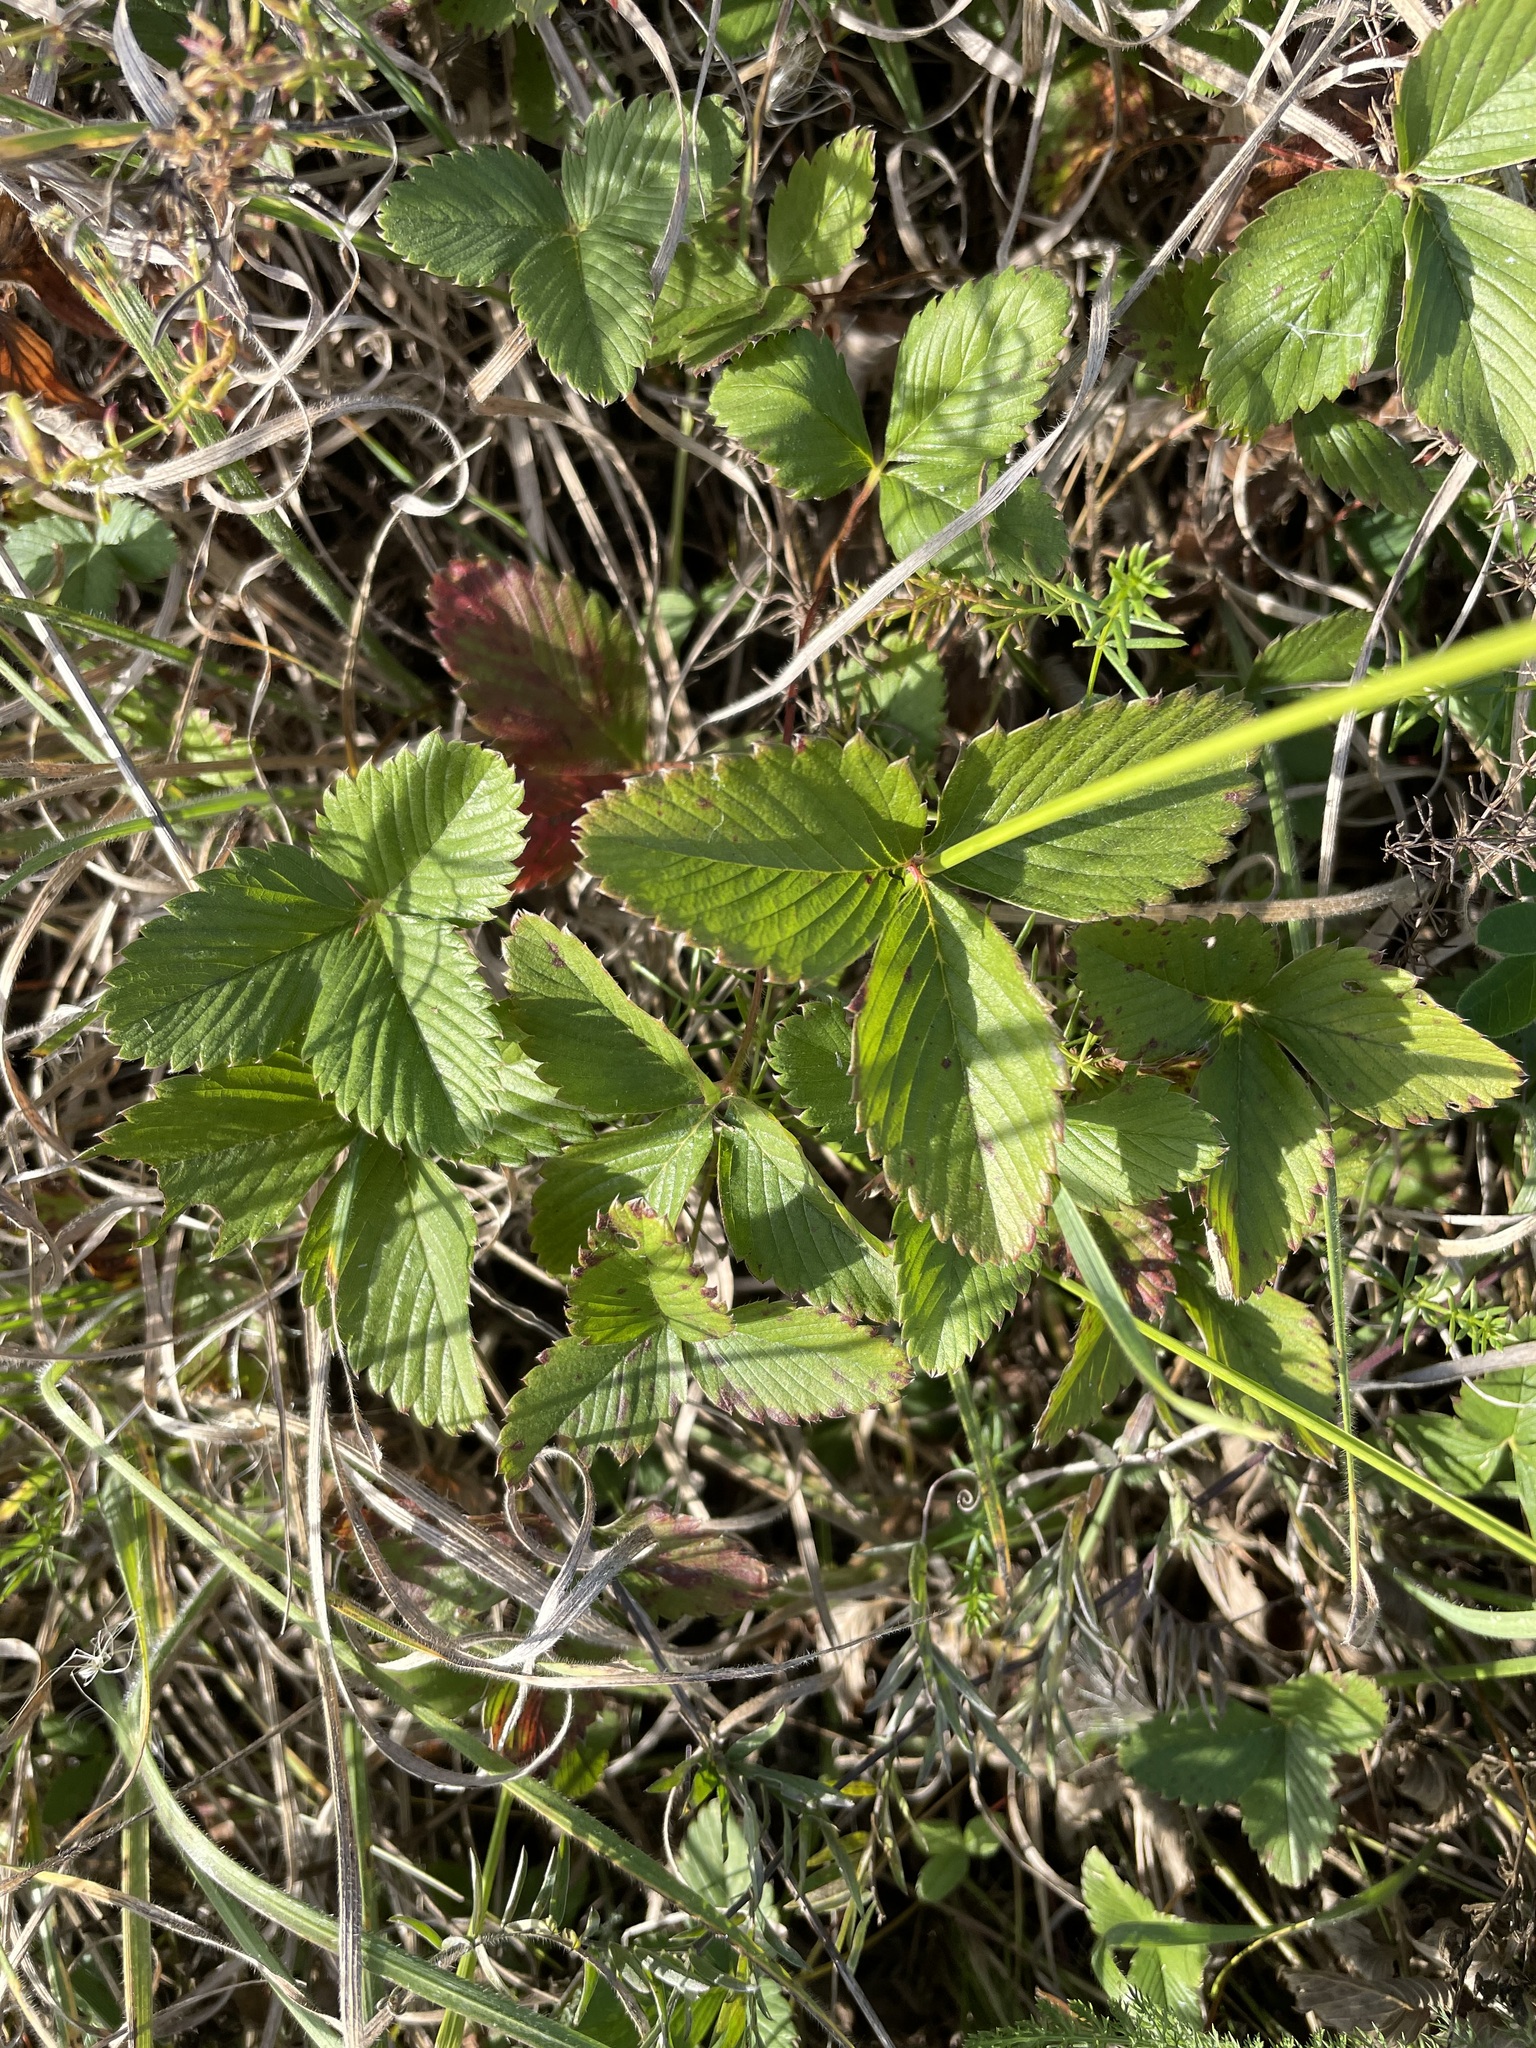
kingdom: Plantae
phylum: Tracheophyta
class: Magnoliopsida
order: Rosales
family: Rosaceae
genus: Fragaria
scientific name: Fragaria viridis
